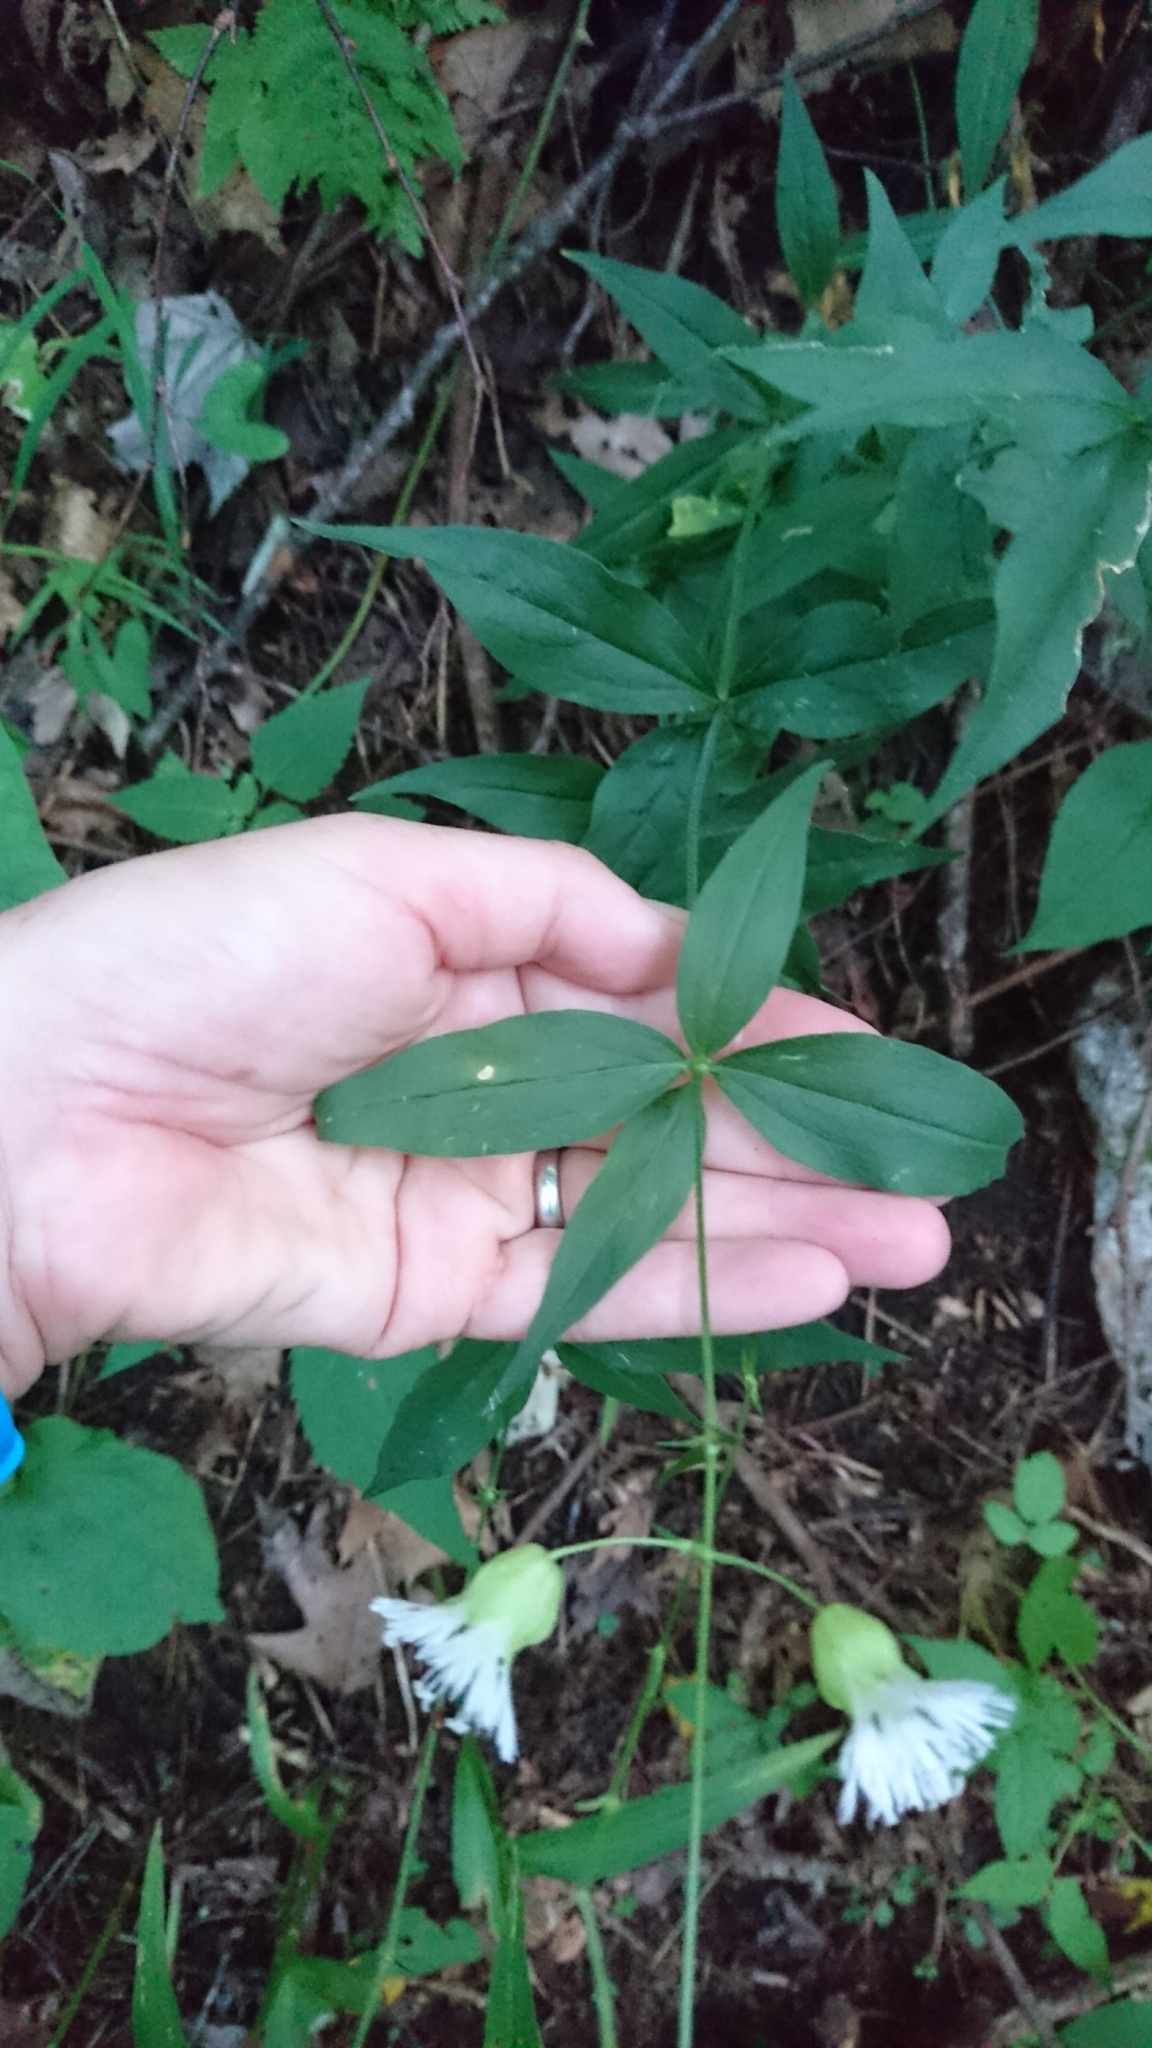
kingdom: Plantae
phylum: Tracheophyta
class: Magnoliopsida
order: Caryophyllales
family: Caryophyllaceae
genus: Silene
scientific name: Silene stellata
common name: Starry campion
